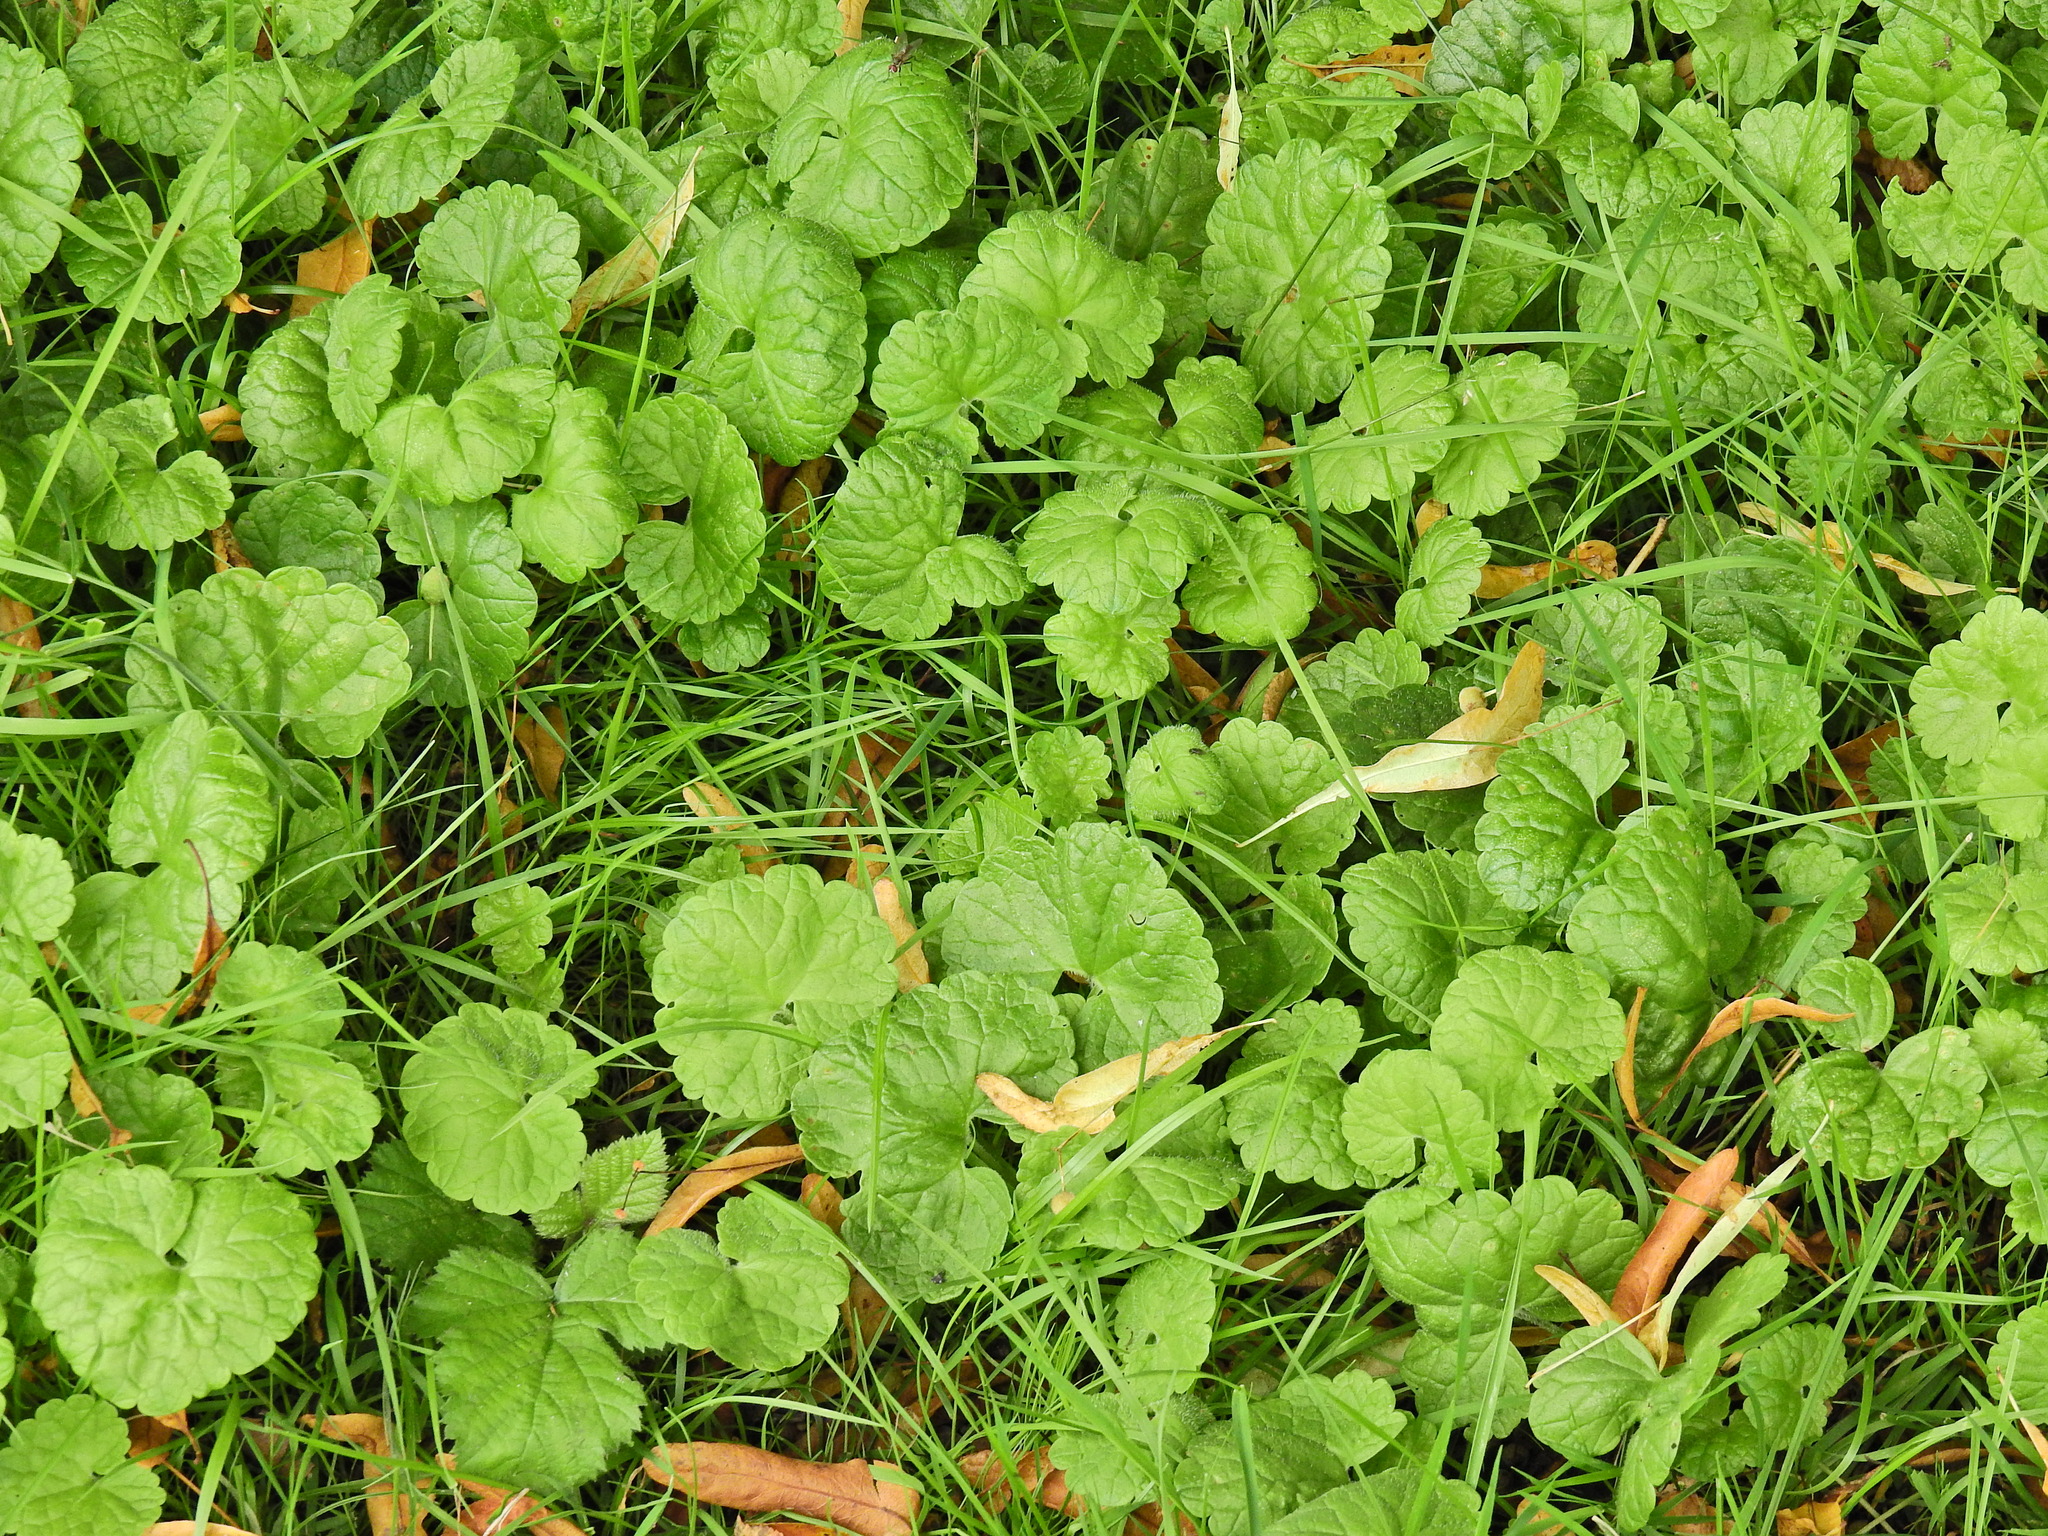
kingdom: Plantae
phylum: Tracheophyta
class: Magnoliopsida
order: Lamiales
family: Lamiaceae
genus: Glechoma
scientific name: Glechoma hederacea
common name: Ground ivy
